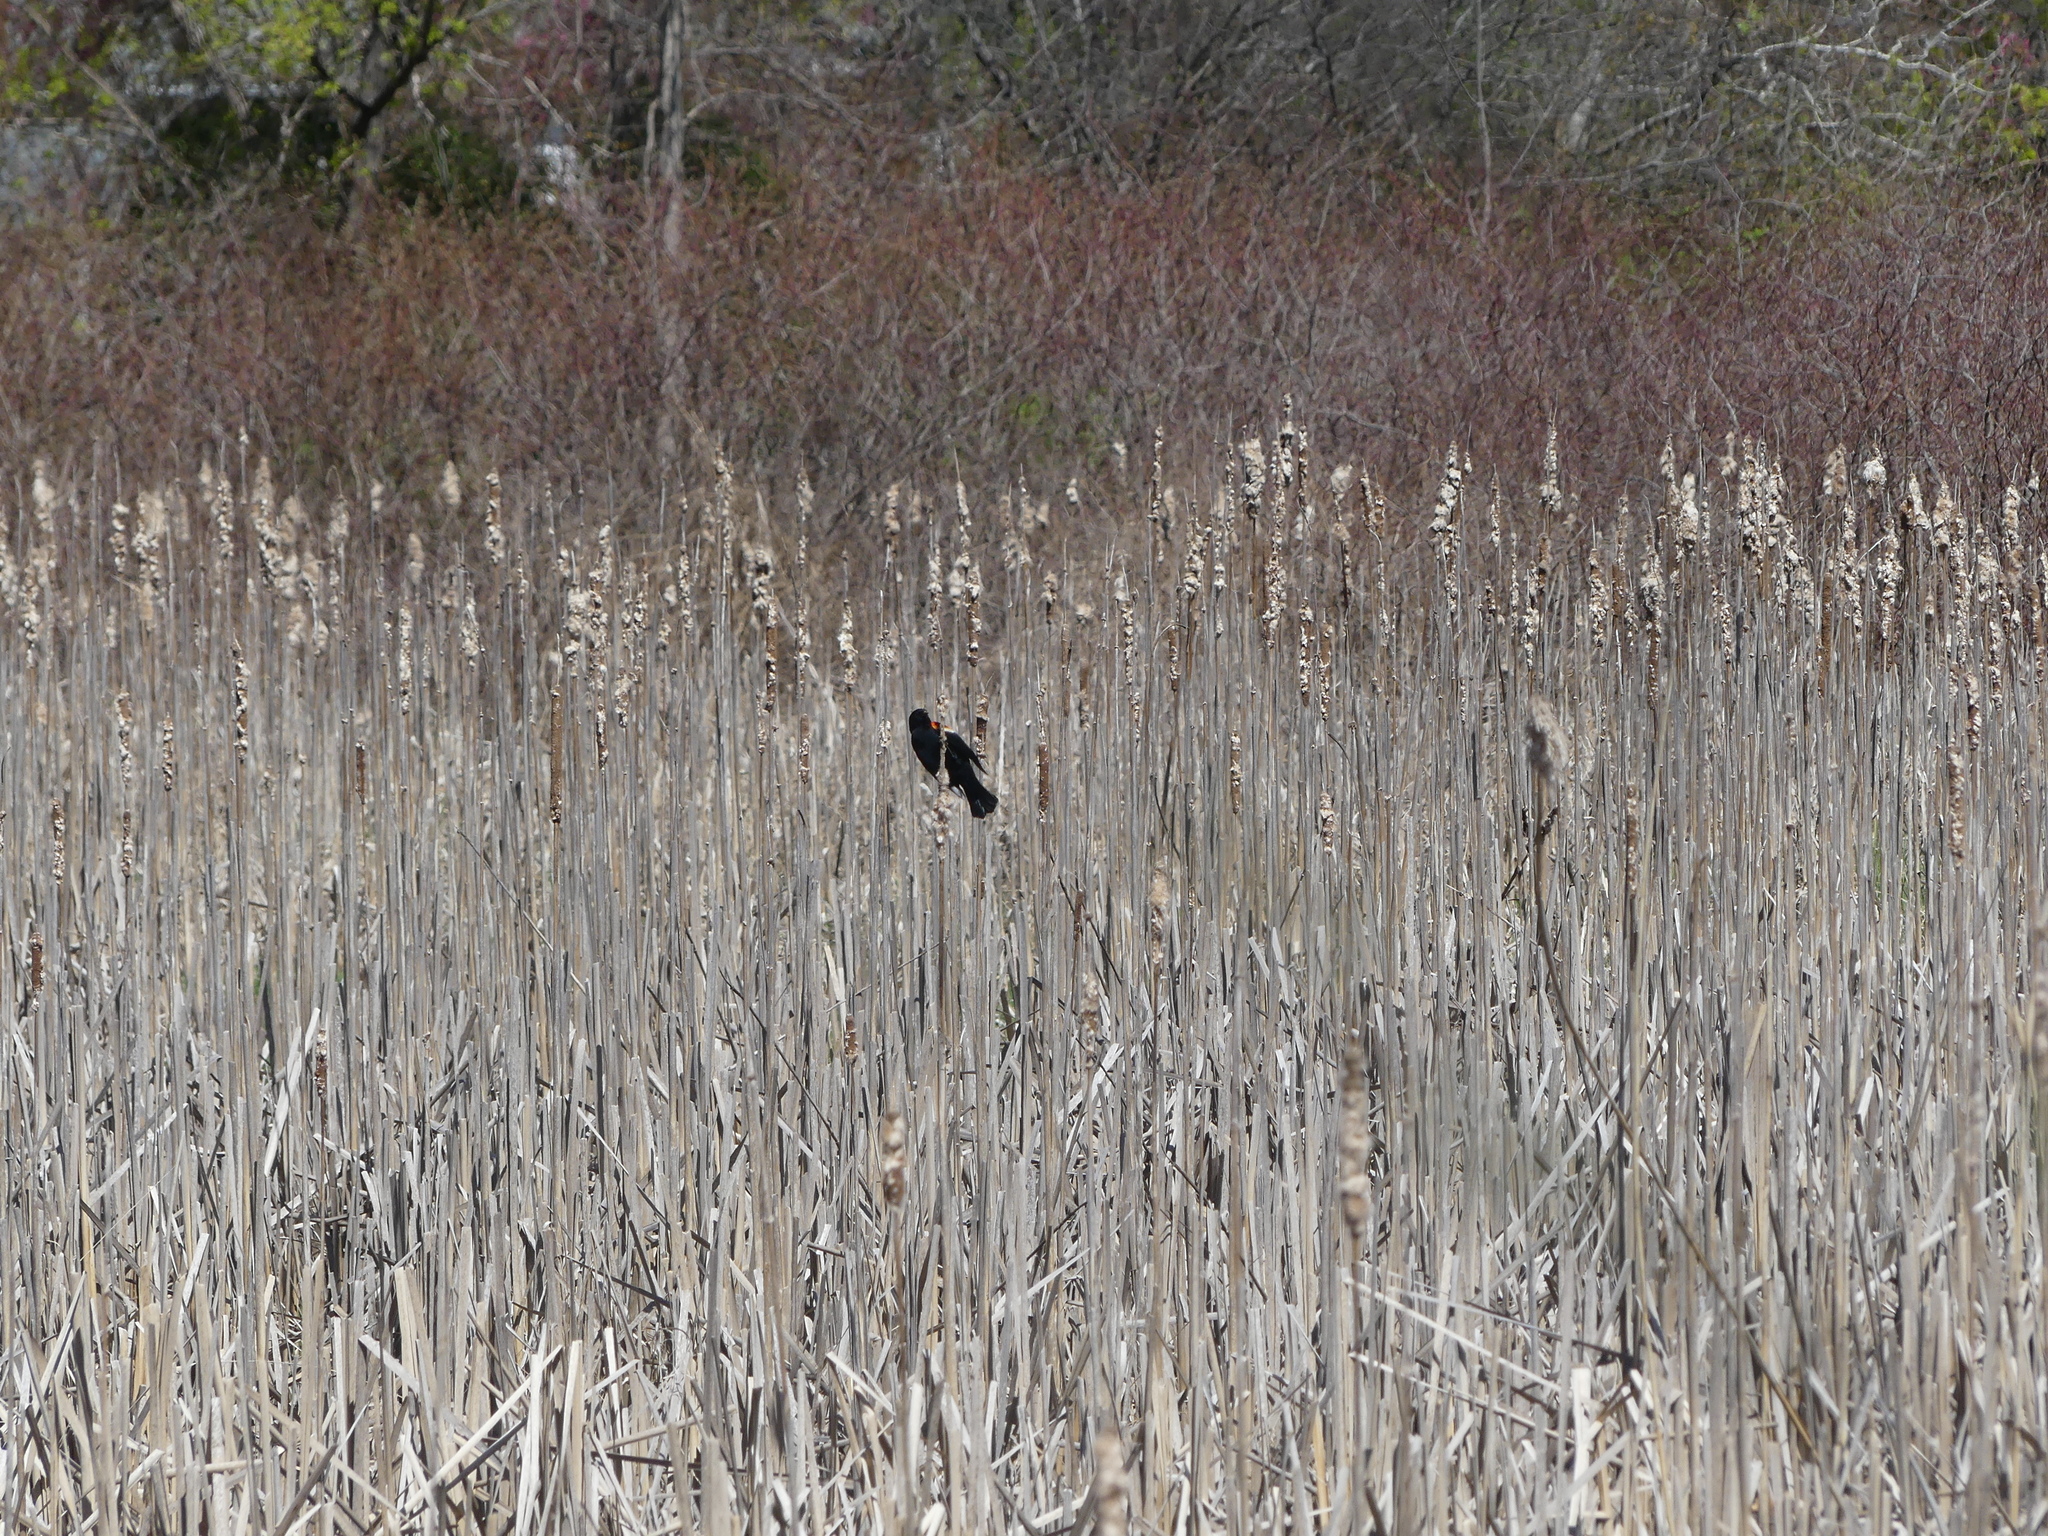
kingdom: Animalia
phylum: Chordata
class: Aves
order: Passeriformes
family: Icteridae
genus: Agelaius
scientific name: Agelaius phoeniceus
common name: Red-winged blackbird
